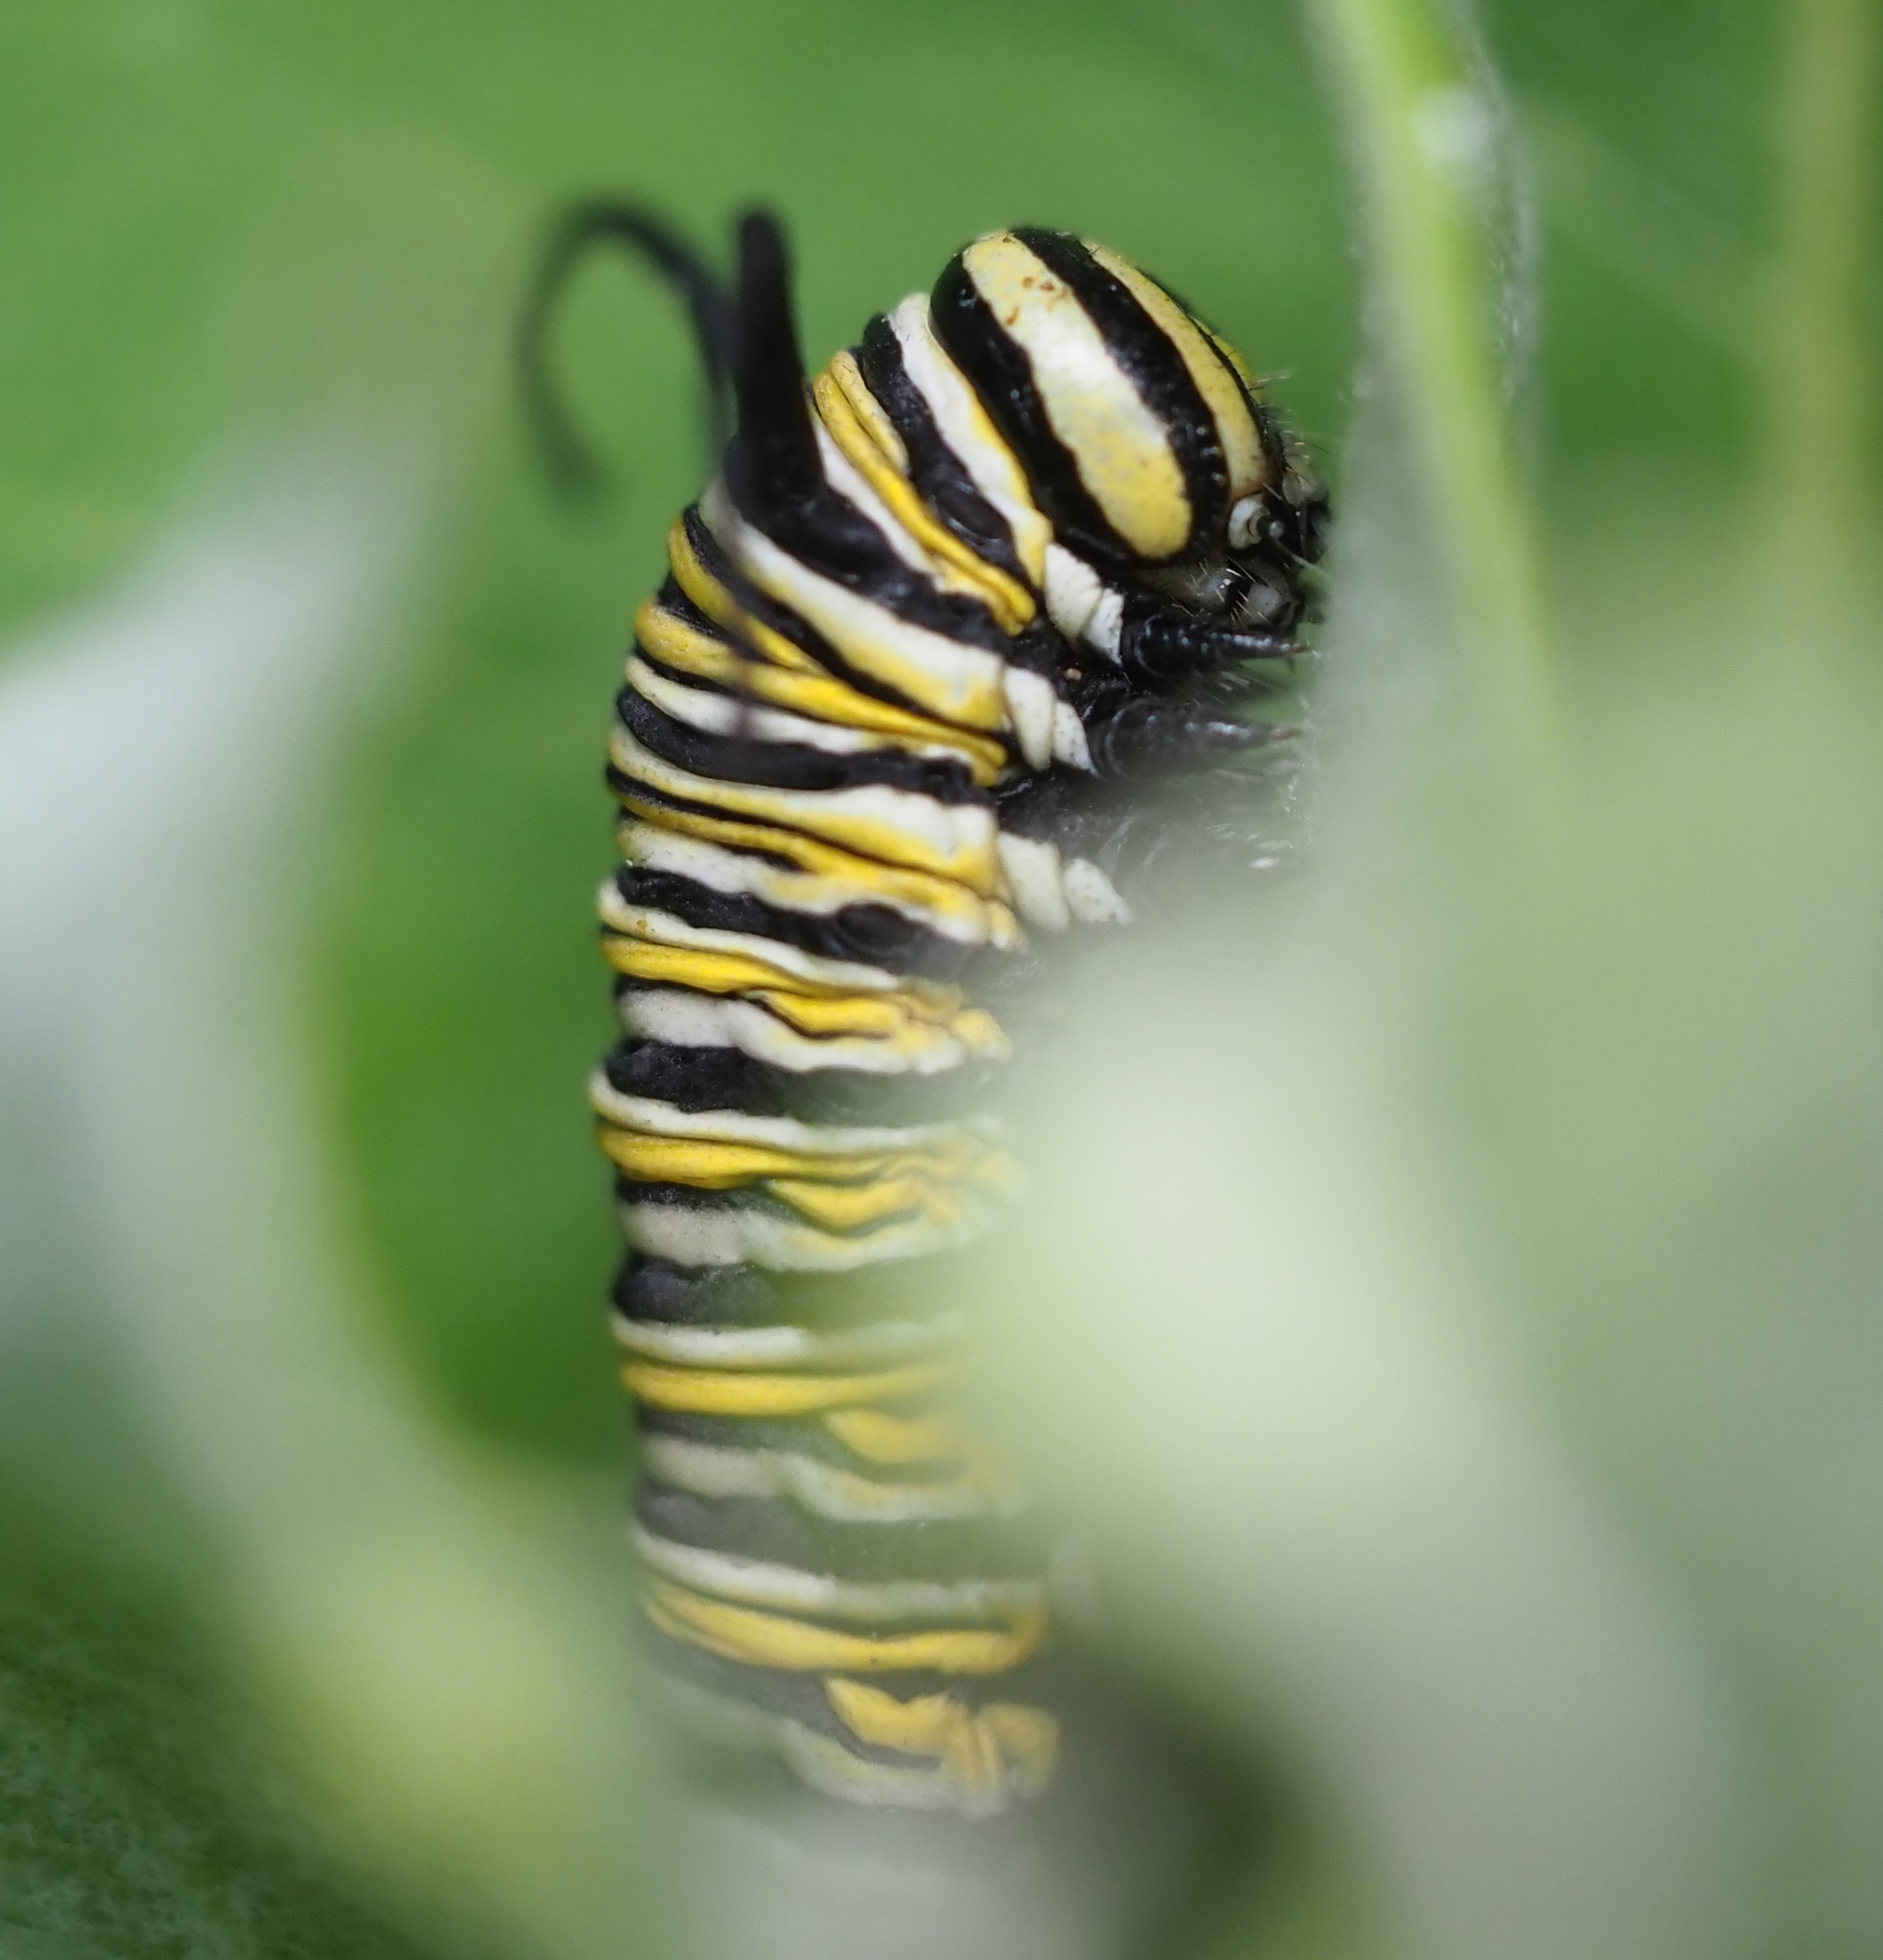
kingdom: Animalia
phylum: Arthropoda
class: Insecta
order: Lepidoptera
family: Nymphalidae
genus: Danaus
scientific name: Danaus plexippus
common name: Monarch
